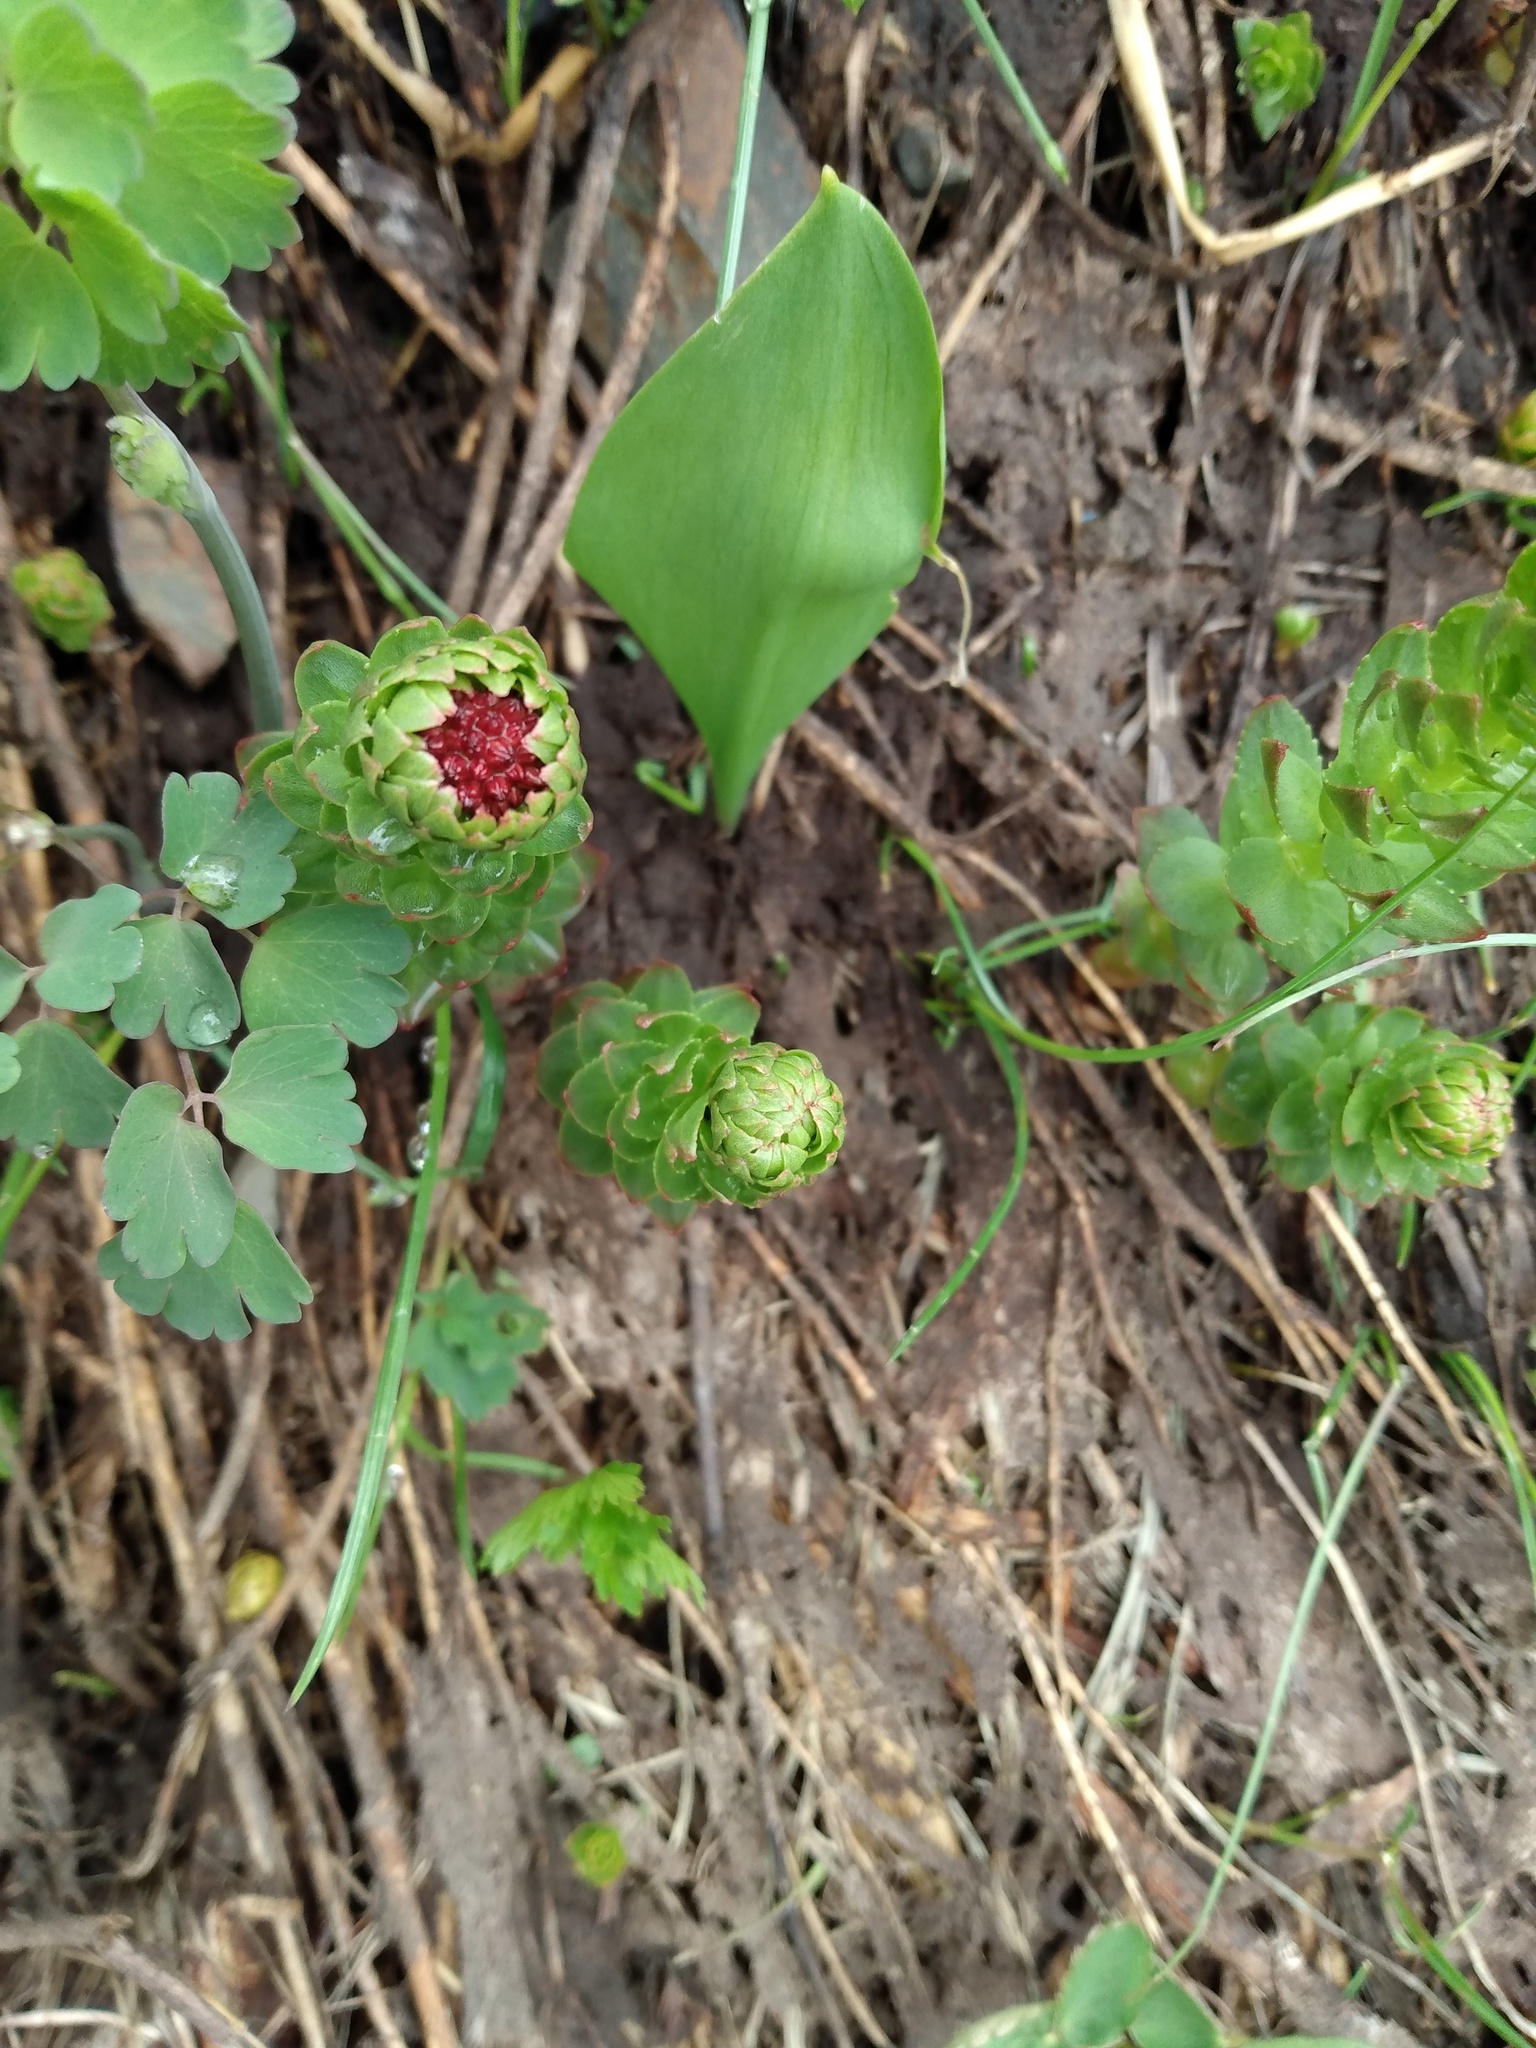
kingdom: Plantae
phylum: Tracheophyta
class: Magnoliopsida
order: Saxifragales
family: Crassulaceae
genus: Rhodiola
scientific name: Rhodiola integrifolia
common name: Western roseroot
